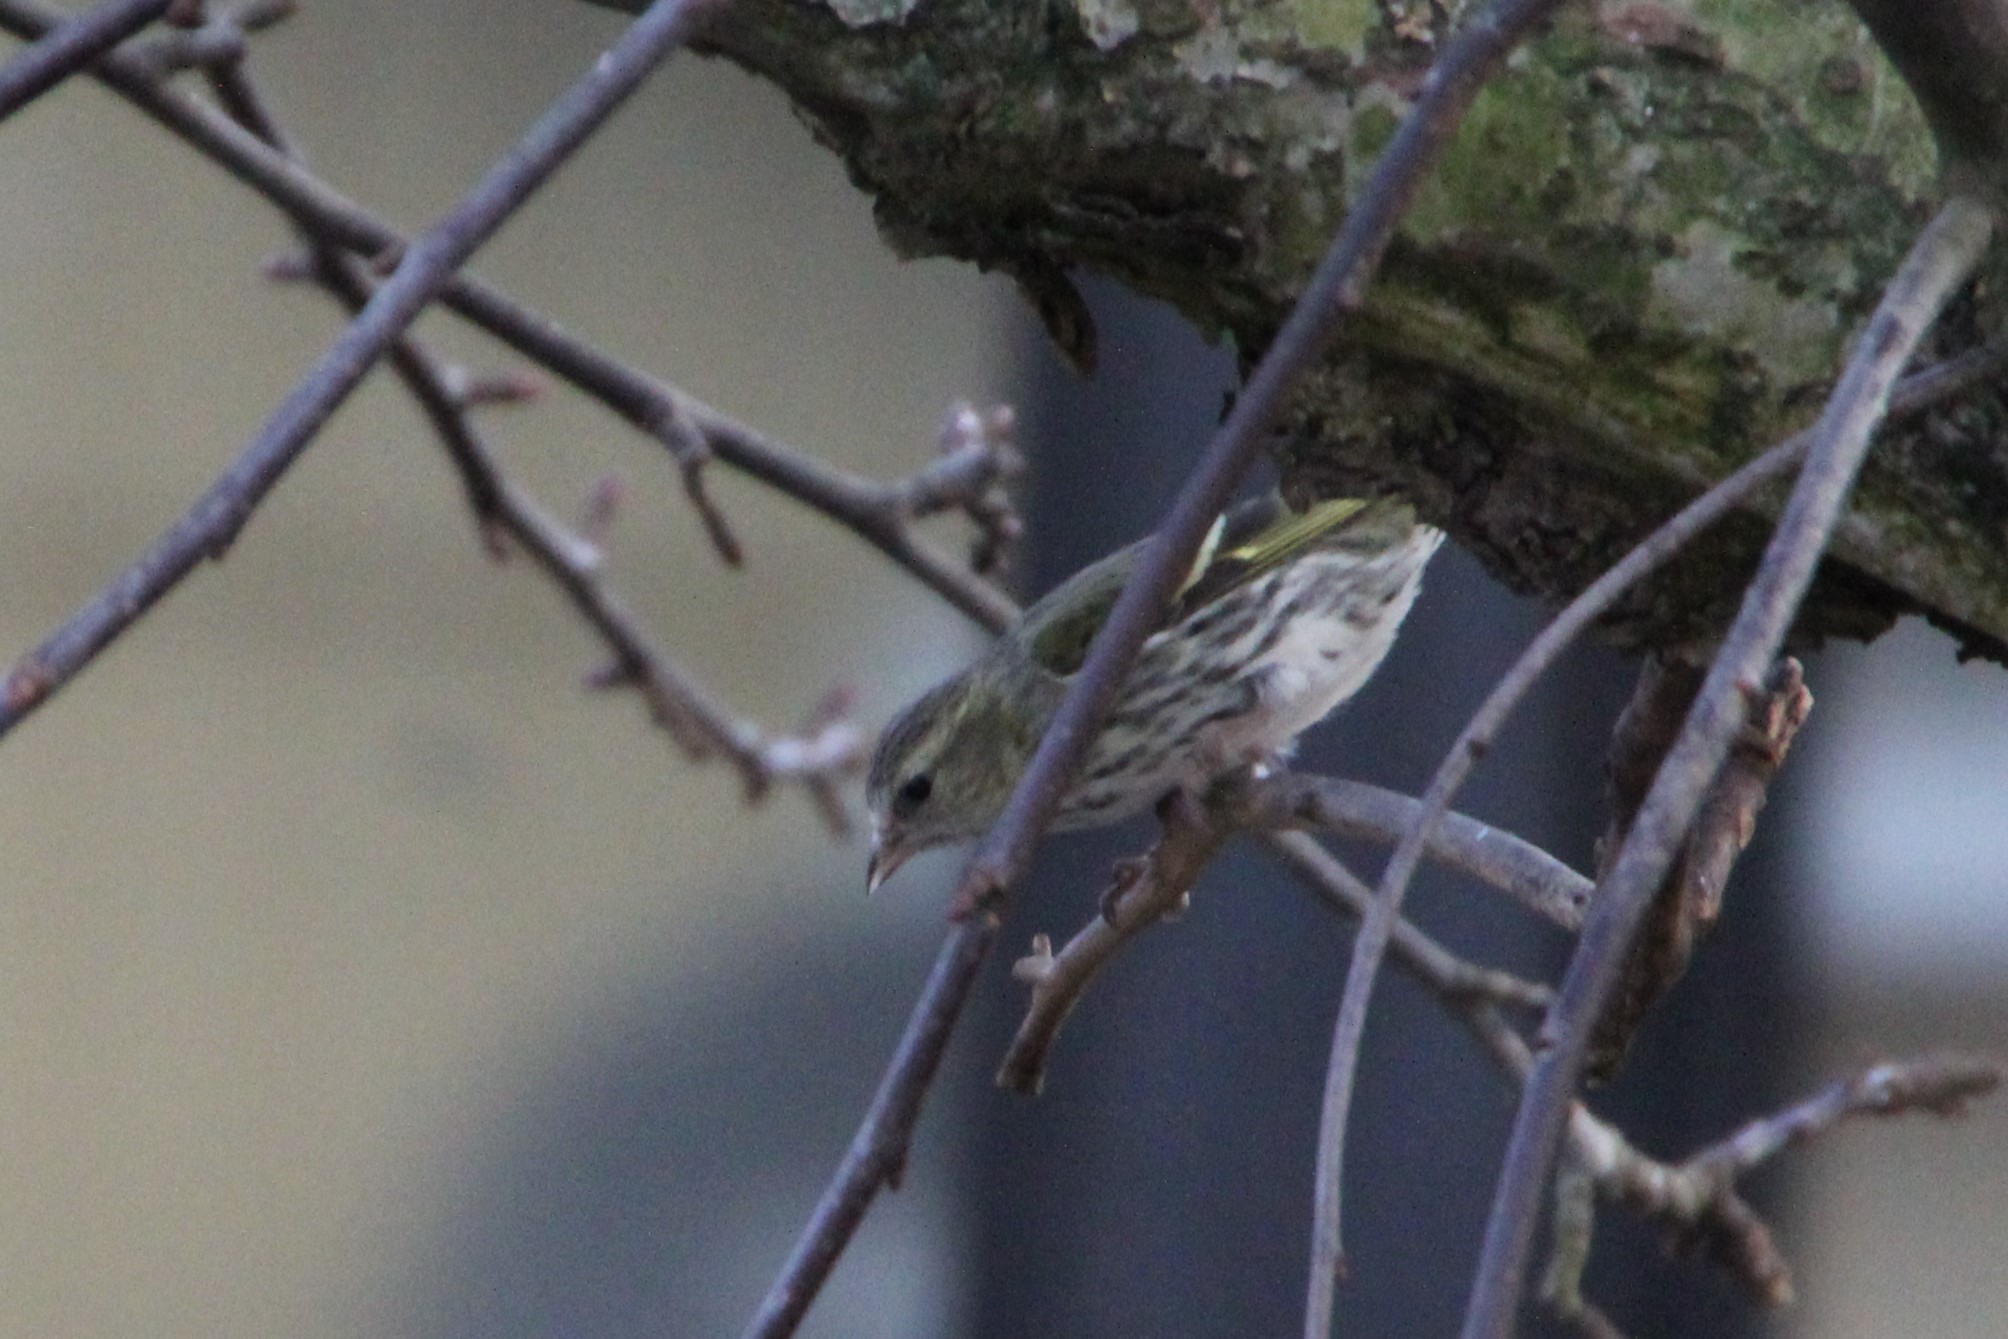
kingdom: Animalia
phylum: Chordata
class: Aves
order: Passeriformes
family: Fringillidae
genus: Spinus
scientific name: Spinus spinus
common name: Eurasian siskin
